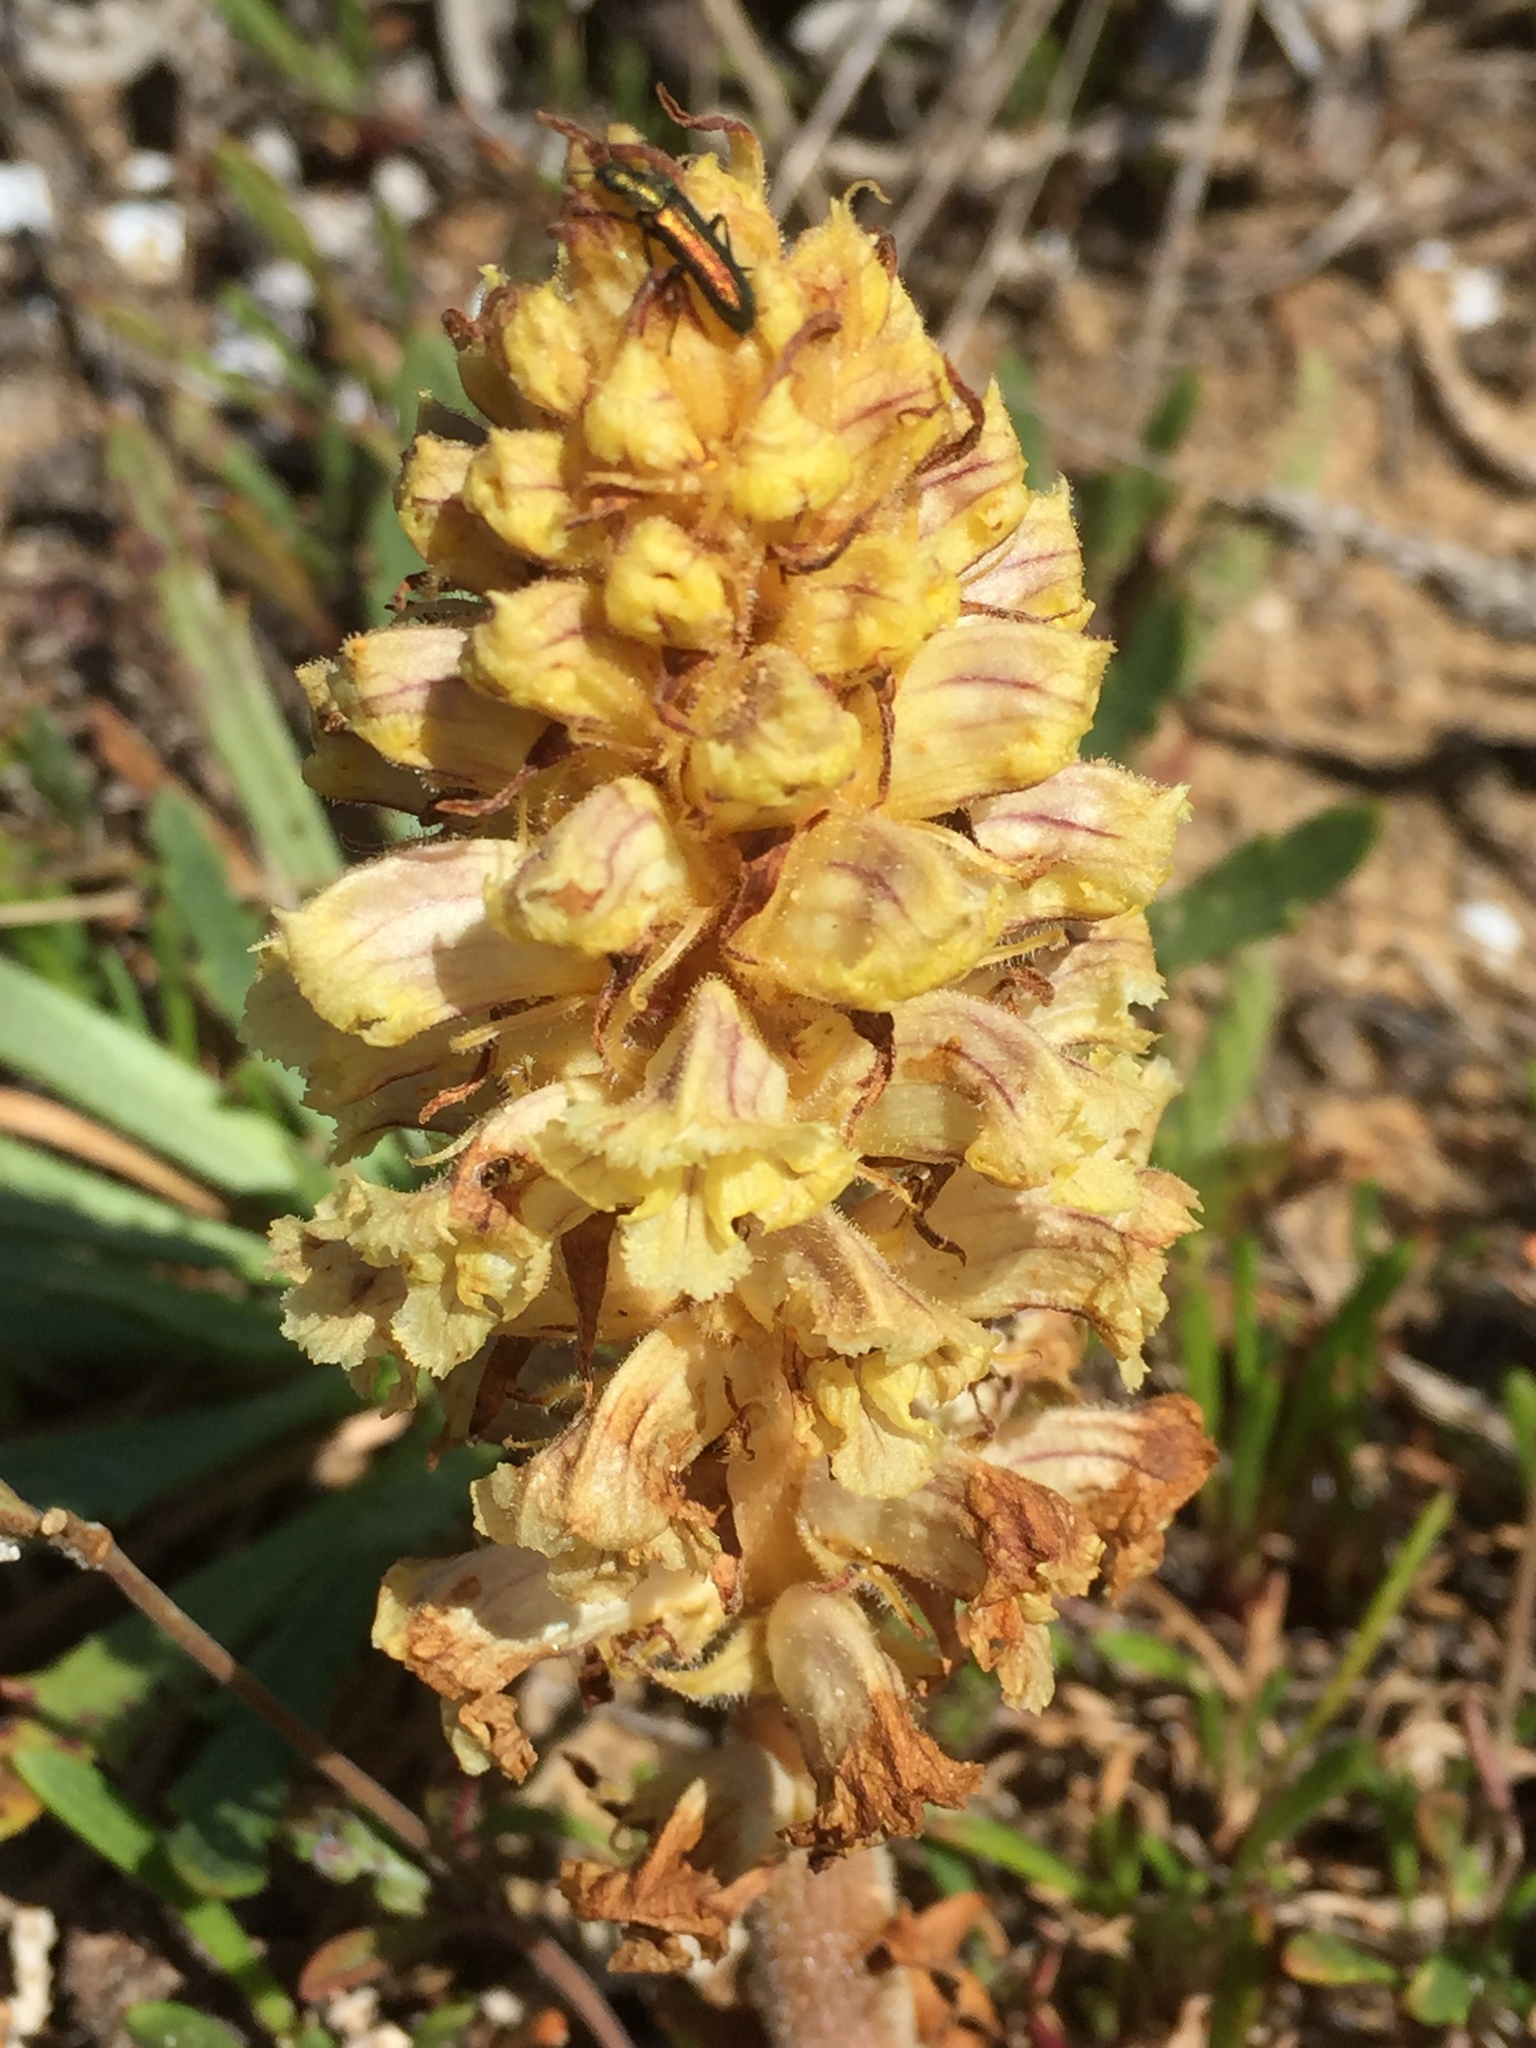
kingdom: Plantae
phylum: Tracheophyta
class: Magnoliopsida
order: Lamiales
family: Orobanchaceae
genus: Orobanche
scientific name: Orobanche litorea
